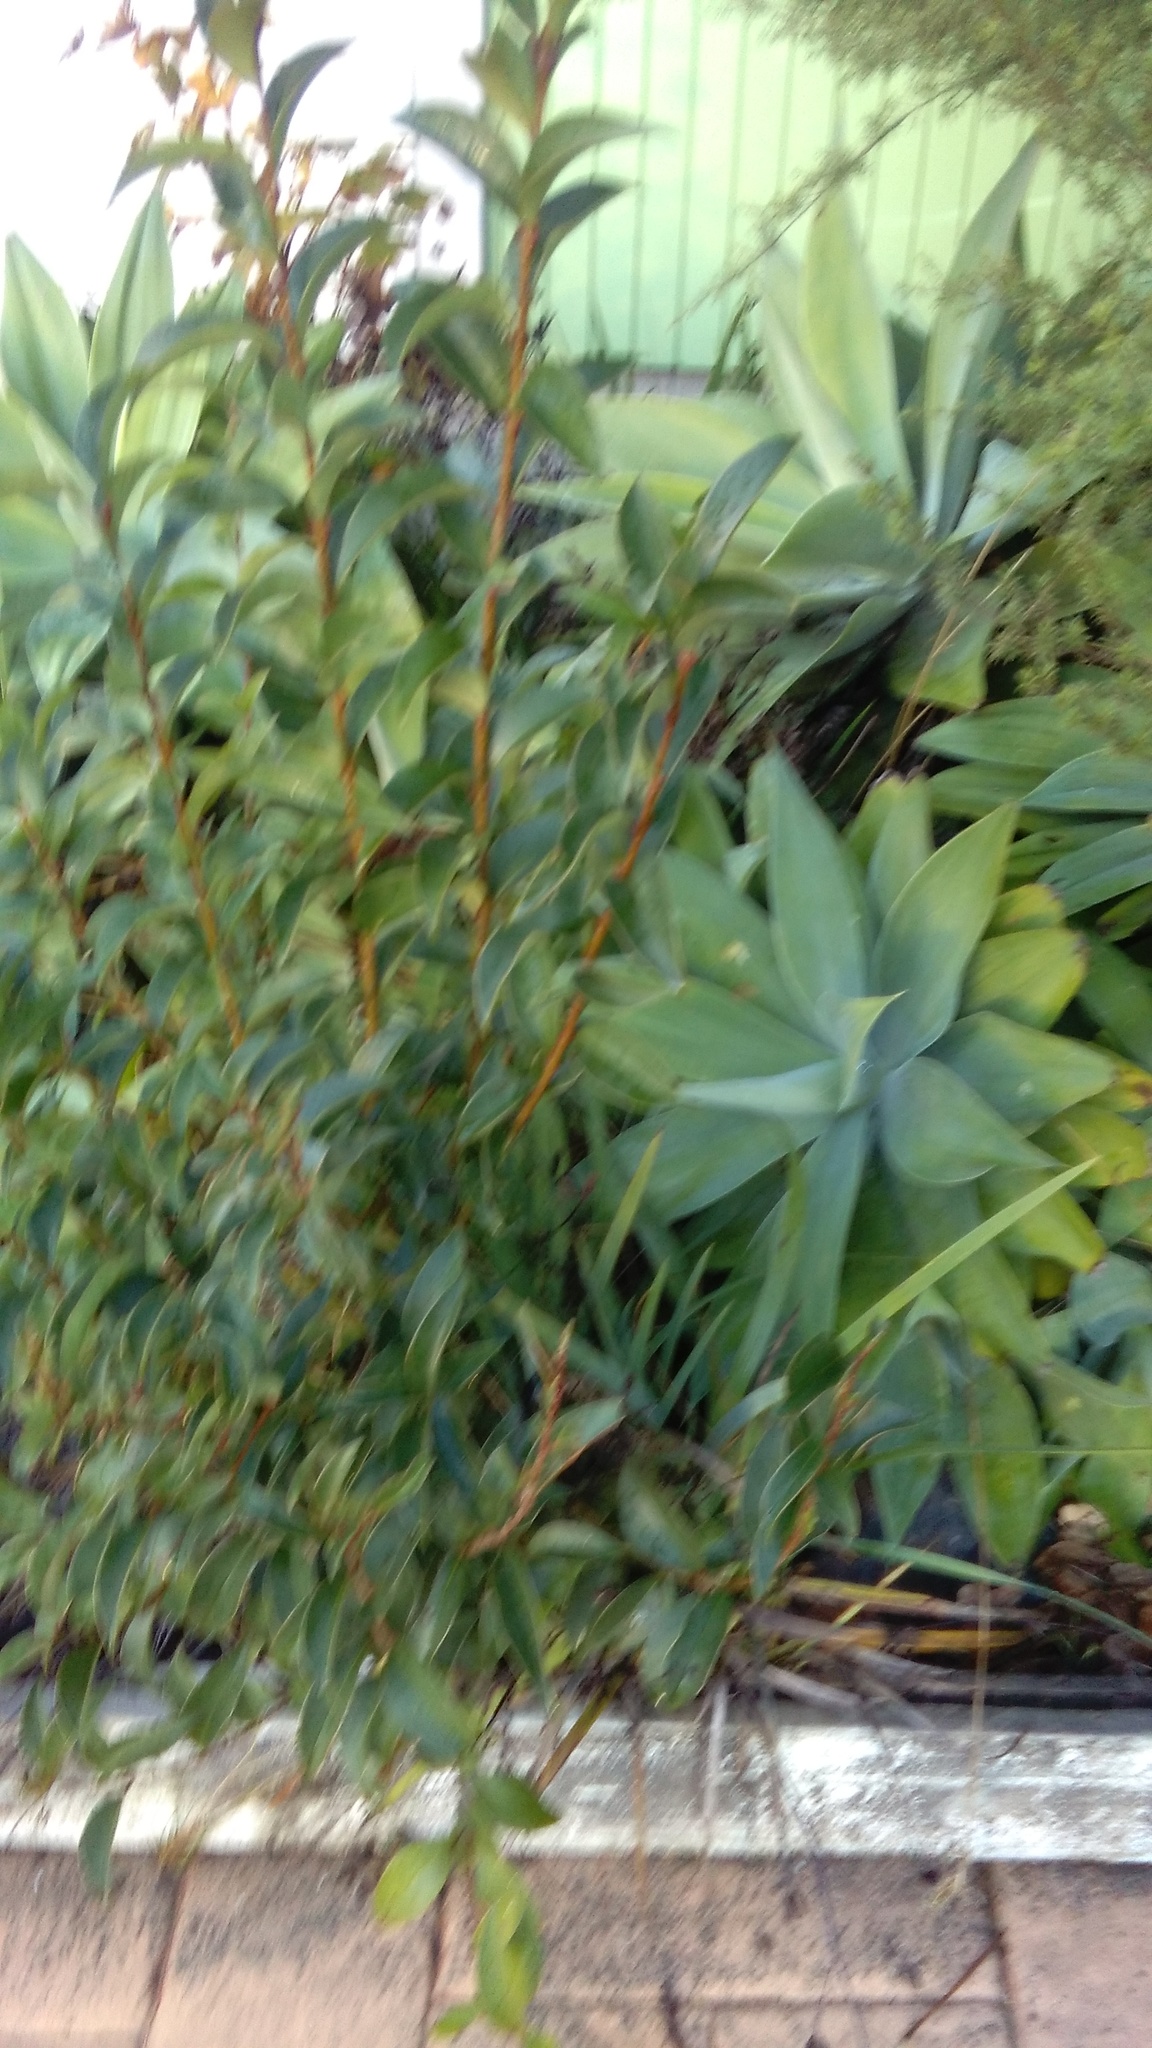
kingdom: Plantae
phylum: Tracheophyta
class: Liliopsida
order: Asparagales
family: Asparagaceae
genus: Agave
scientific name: Agave attenuata
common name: Fox tail agave
